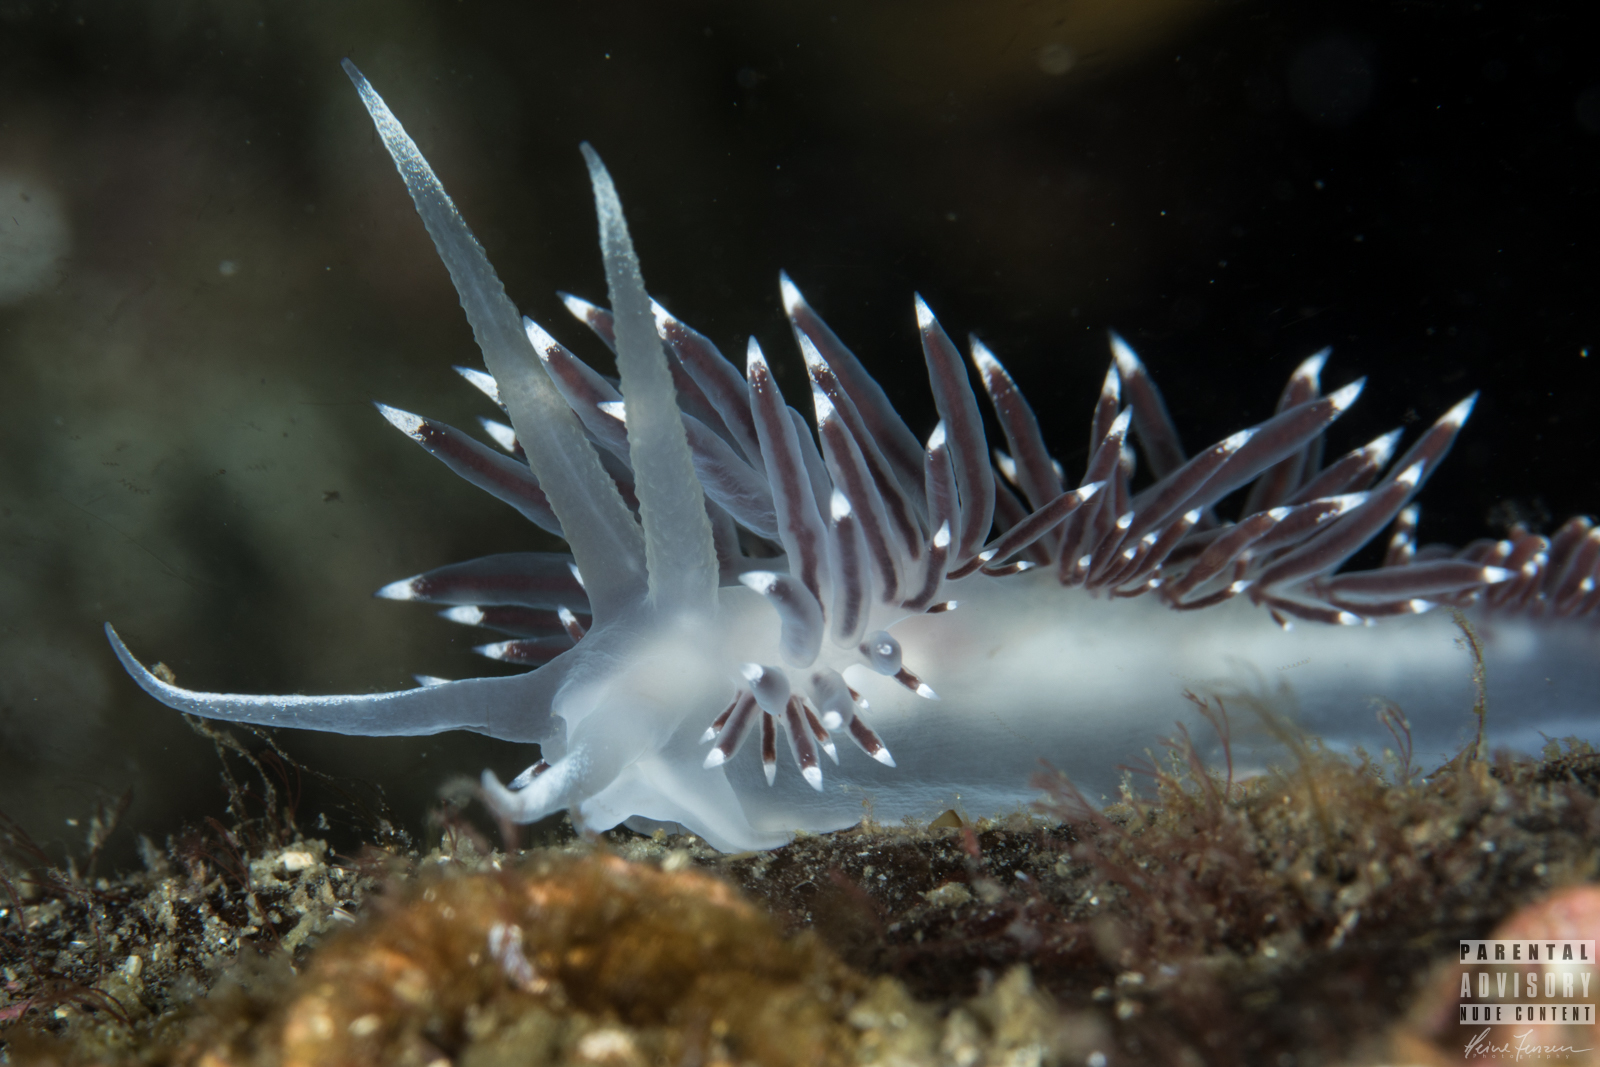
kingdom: Animalia
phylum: Mollusca
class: Gastropoda
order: Nudibranchia
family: Coryphellidae
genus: Coryphella
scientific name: Coryphella browni
